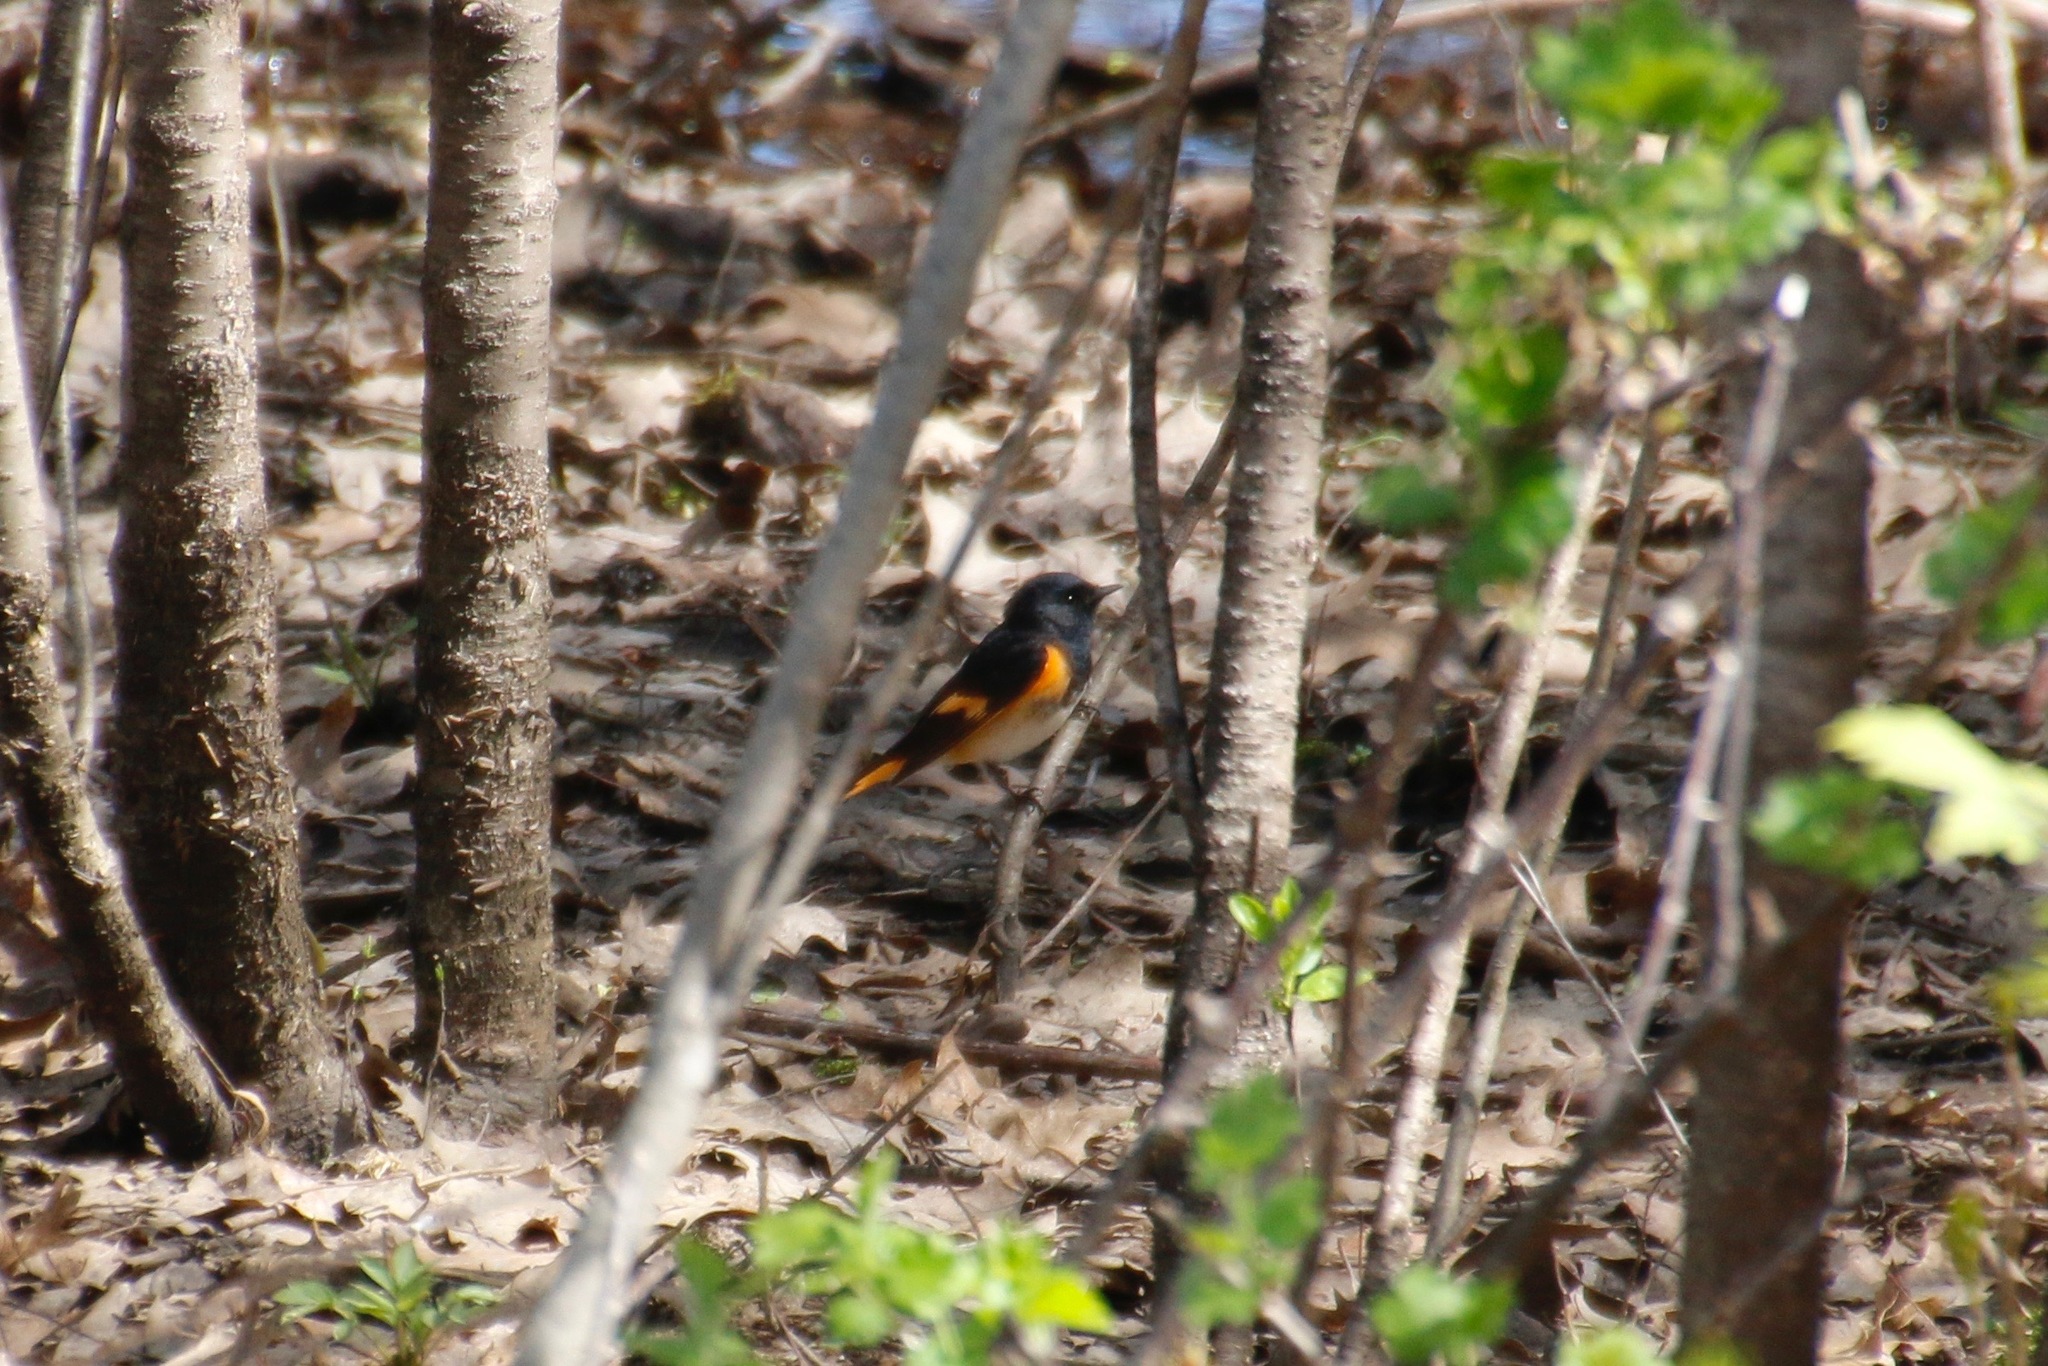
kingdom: Animalia
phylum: Chordata
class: Aves
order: Passeriformes
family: Parulidae
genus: Setophaga
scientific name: Setophaga ruticilla
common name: American redstart
